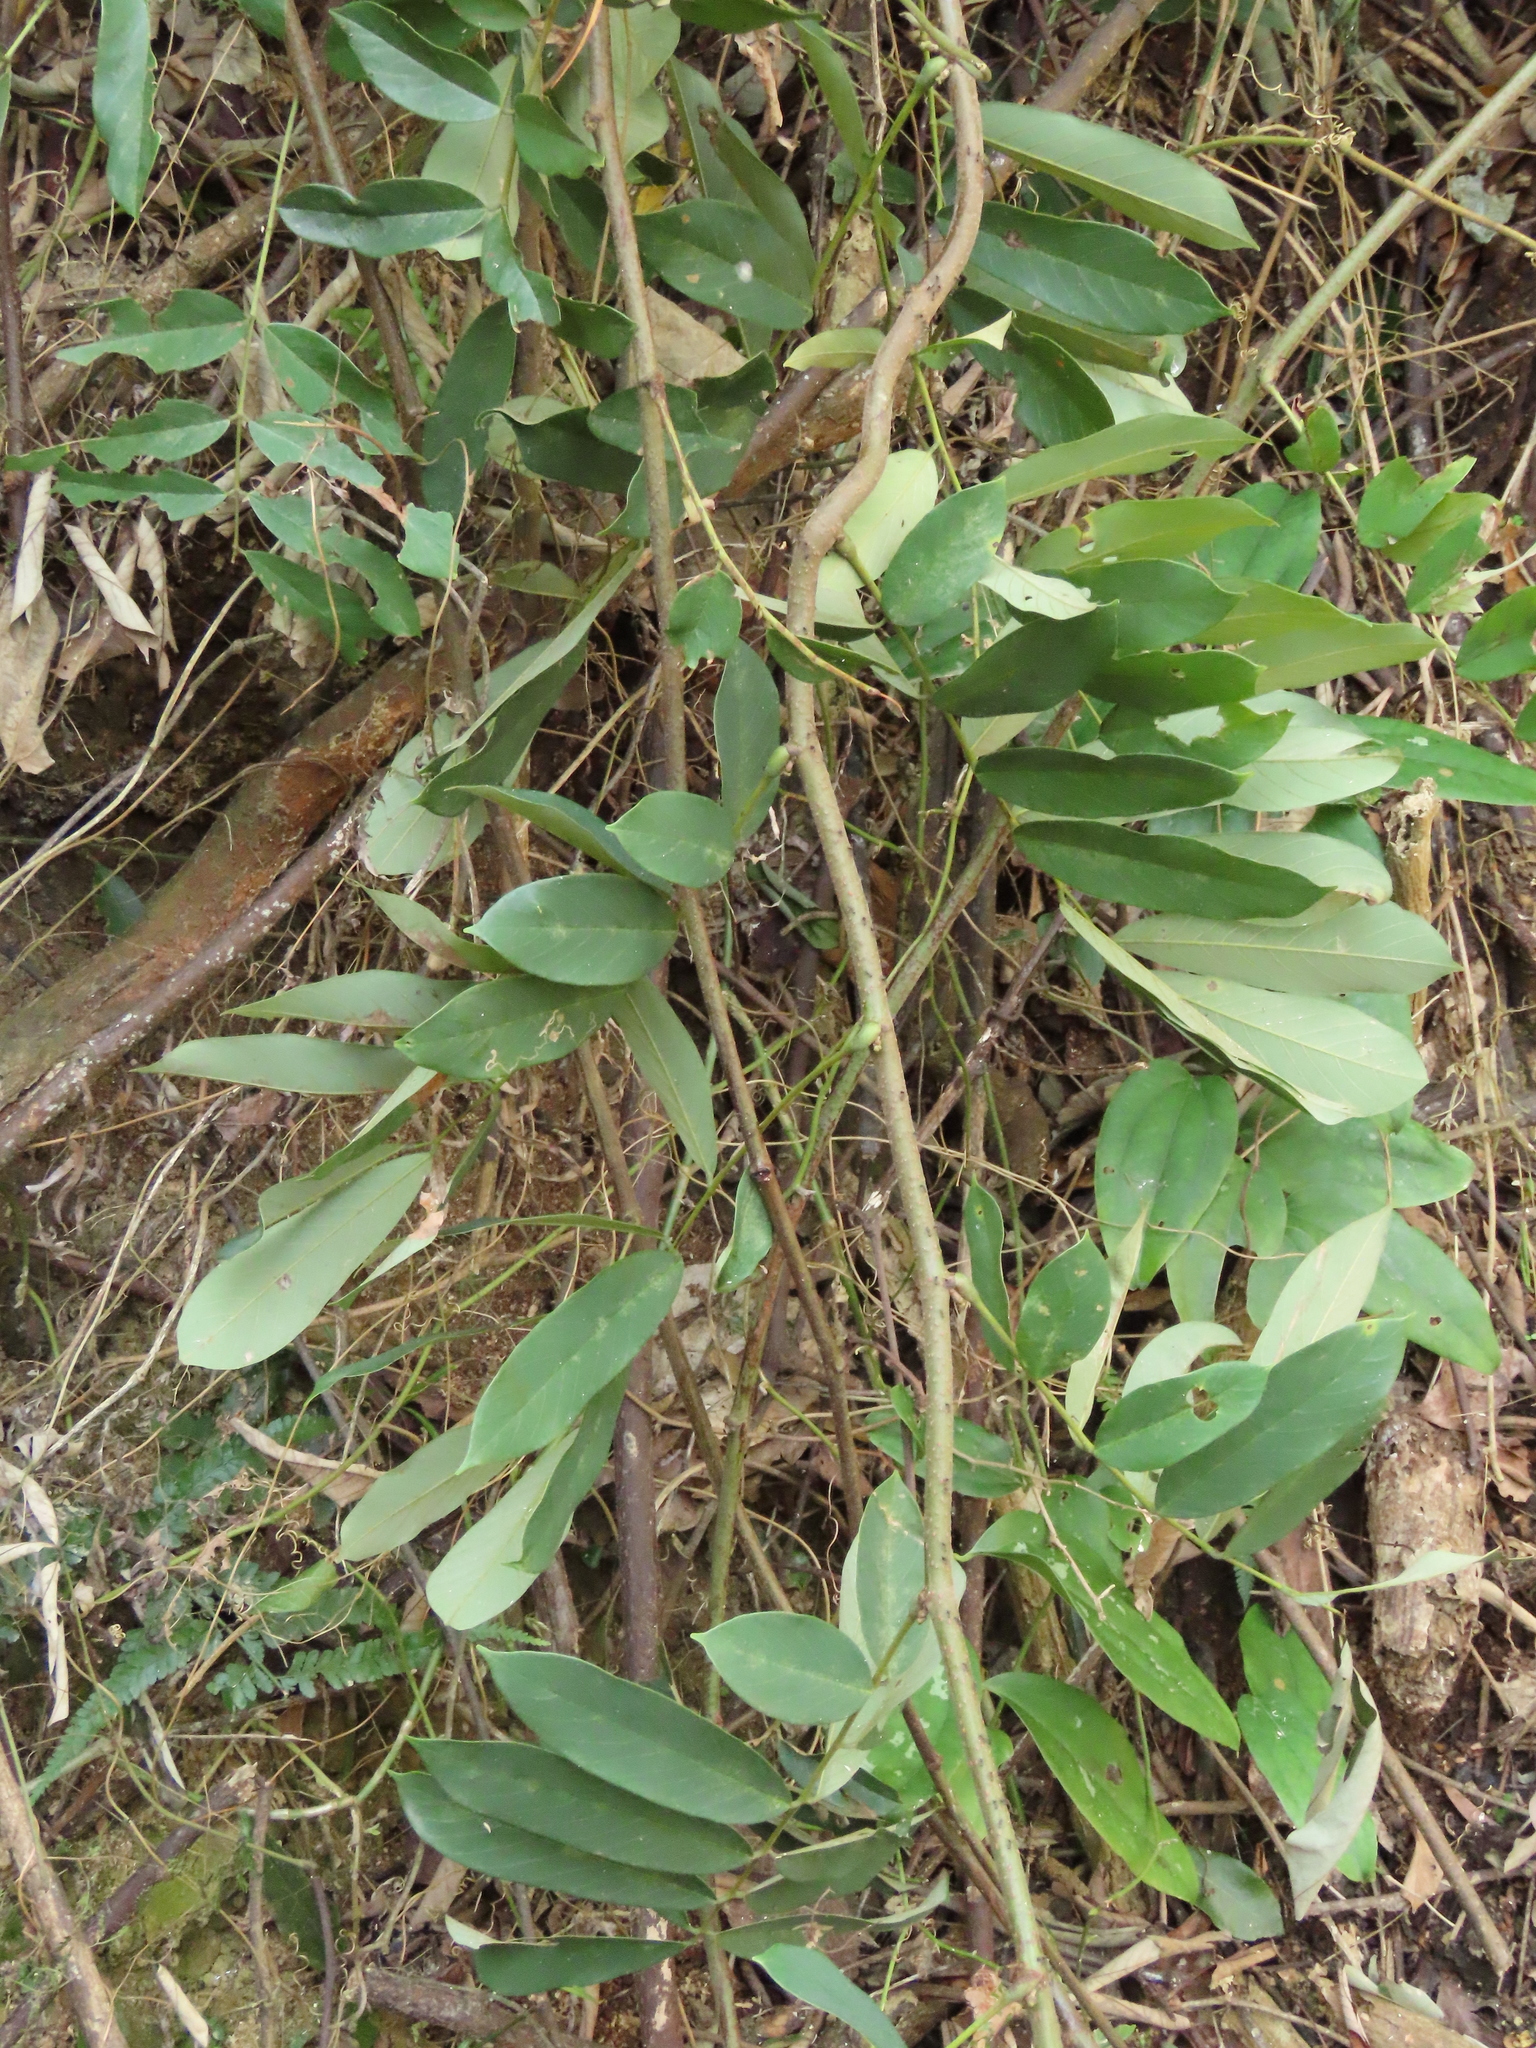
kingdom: Plantae
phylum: Tracheophyta
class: Magnoliopsida
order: Fabales
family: Fabaceae
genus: Millettia
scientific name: Millettia pachycarpa
